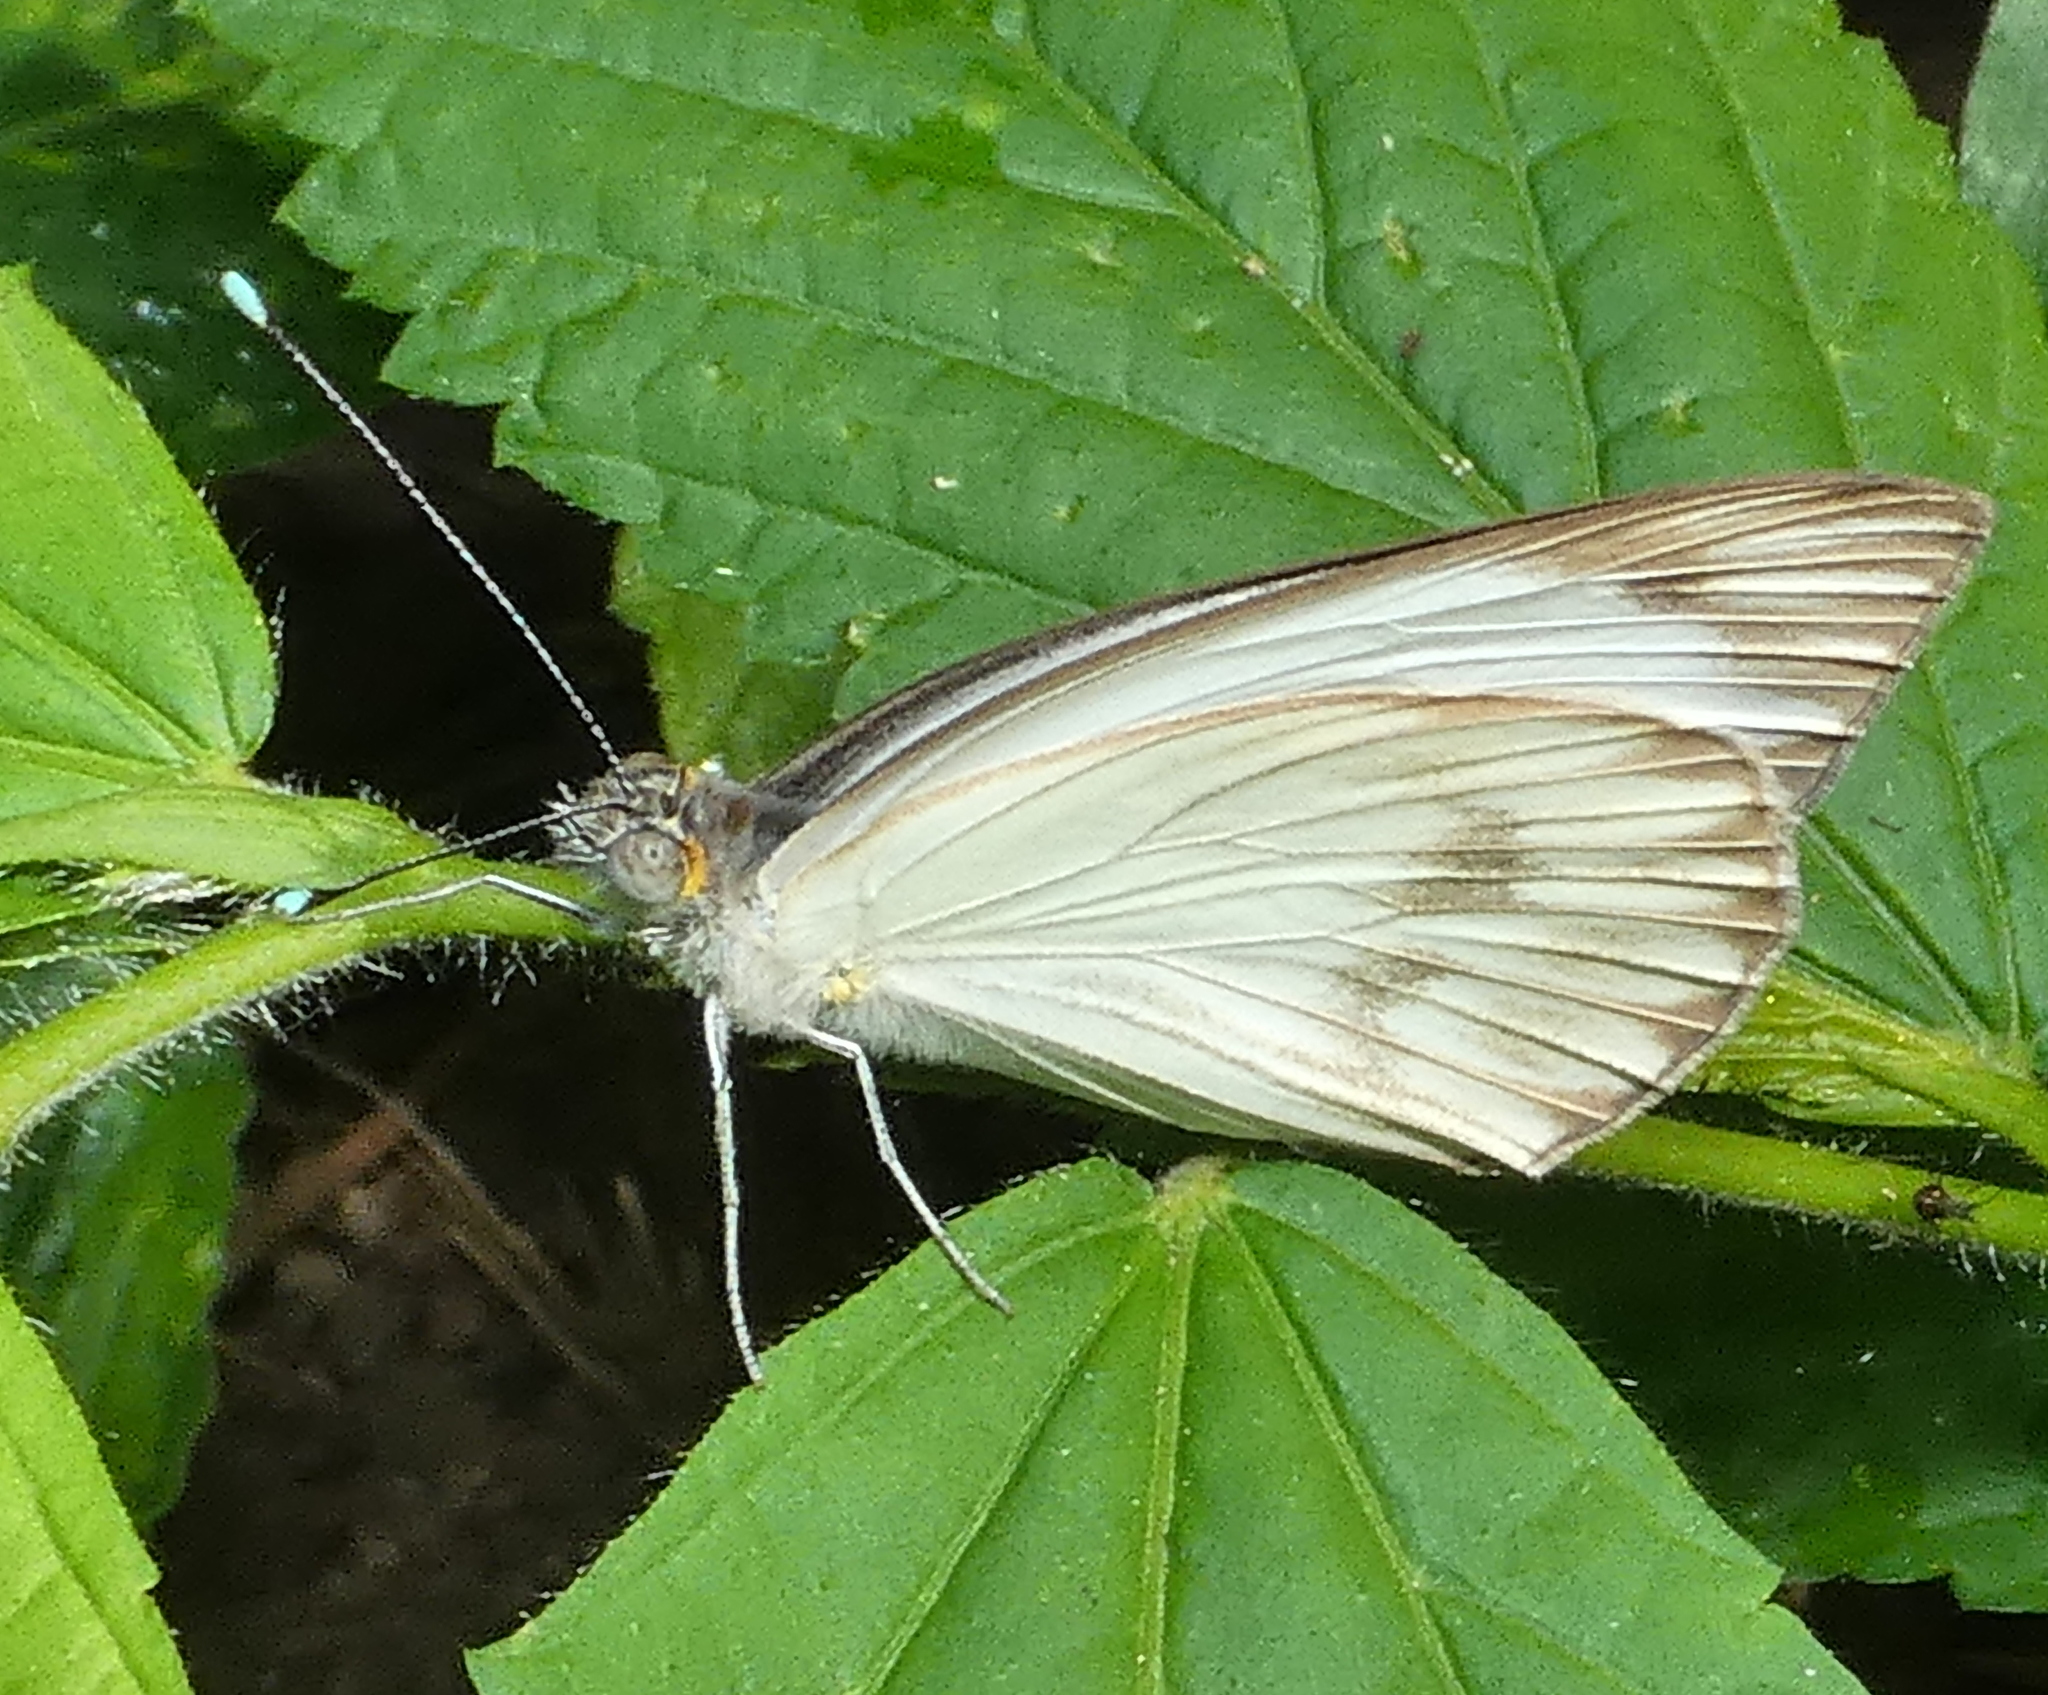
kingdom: Animalia
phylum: Arthropoda
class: Insecta
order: Lepidoptera
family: Pieridae
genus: Ascia
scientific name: Ascia monuste
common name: Great southern white
